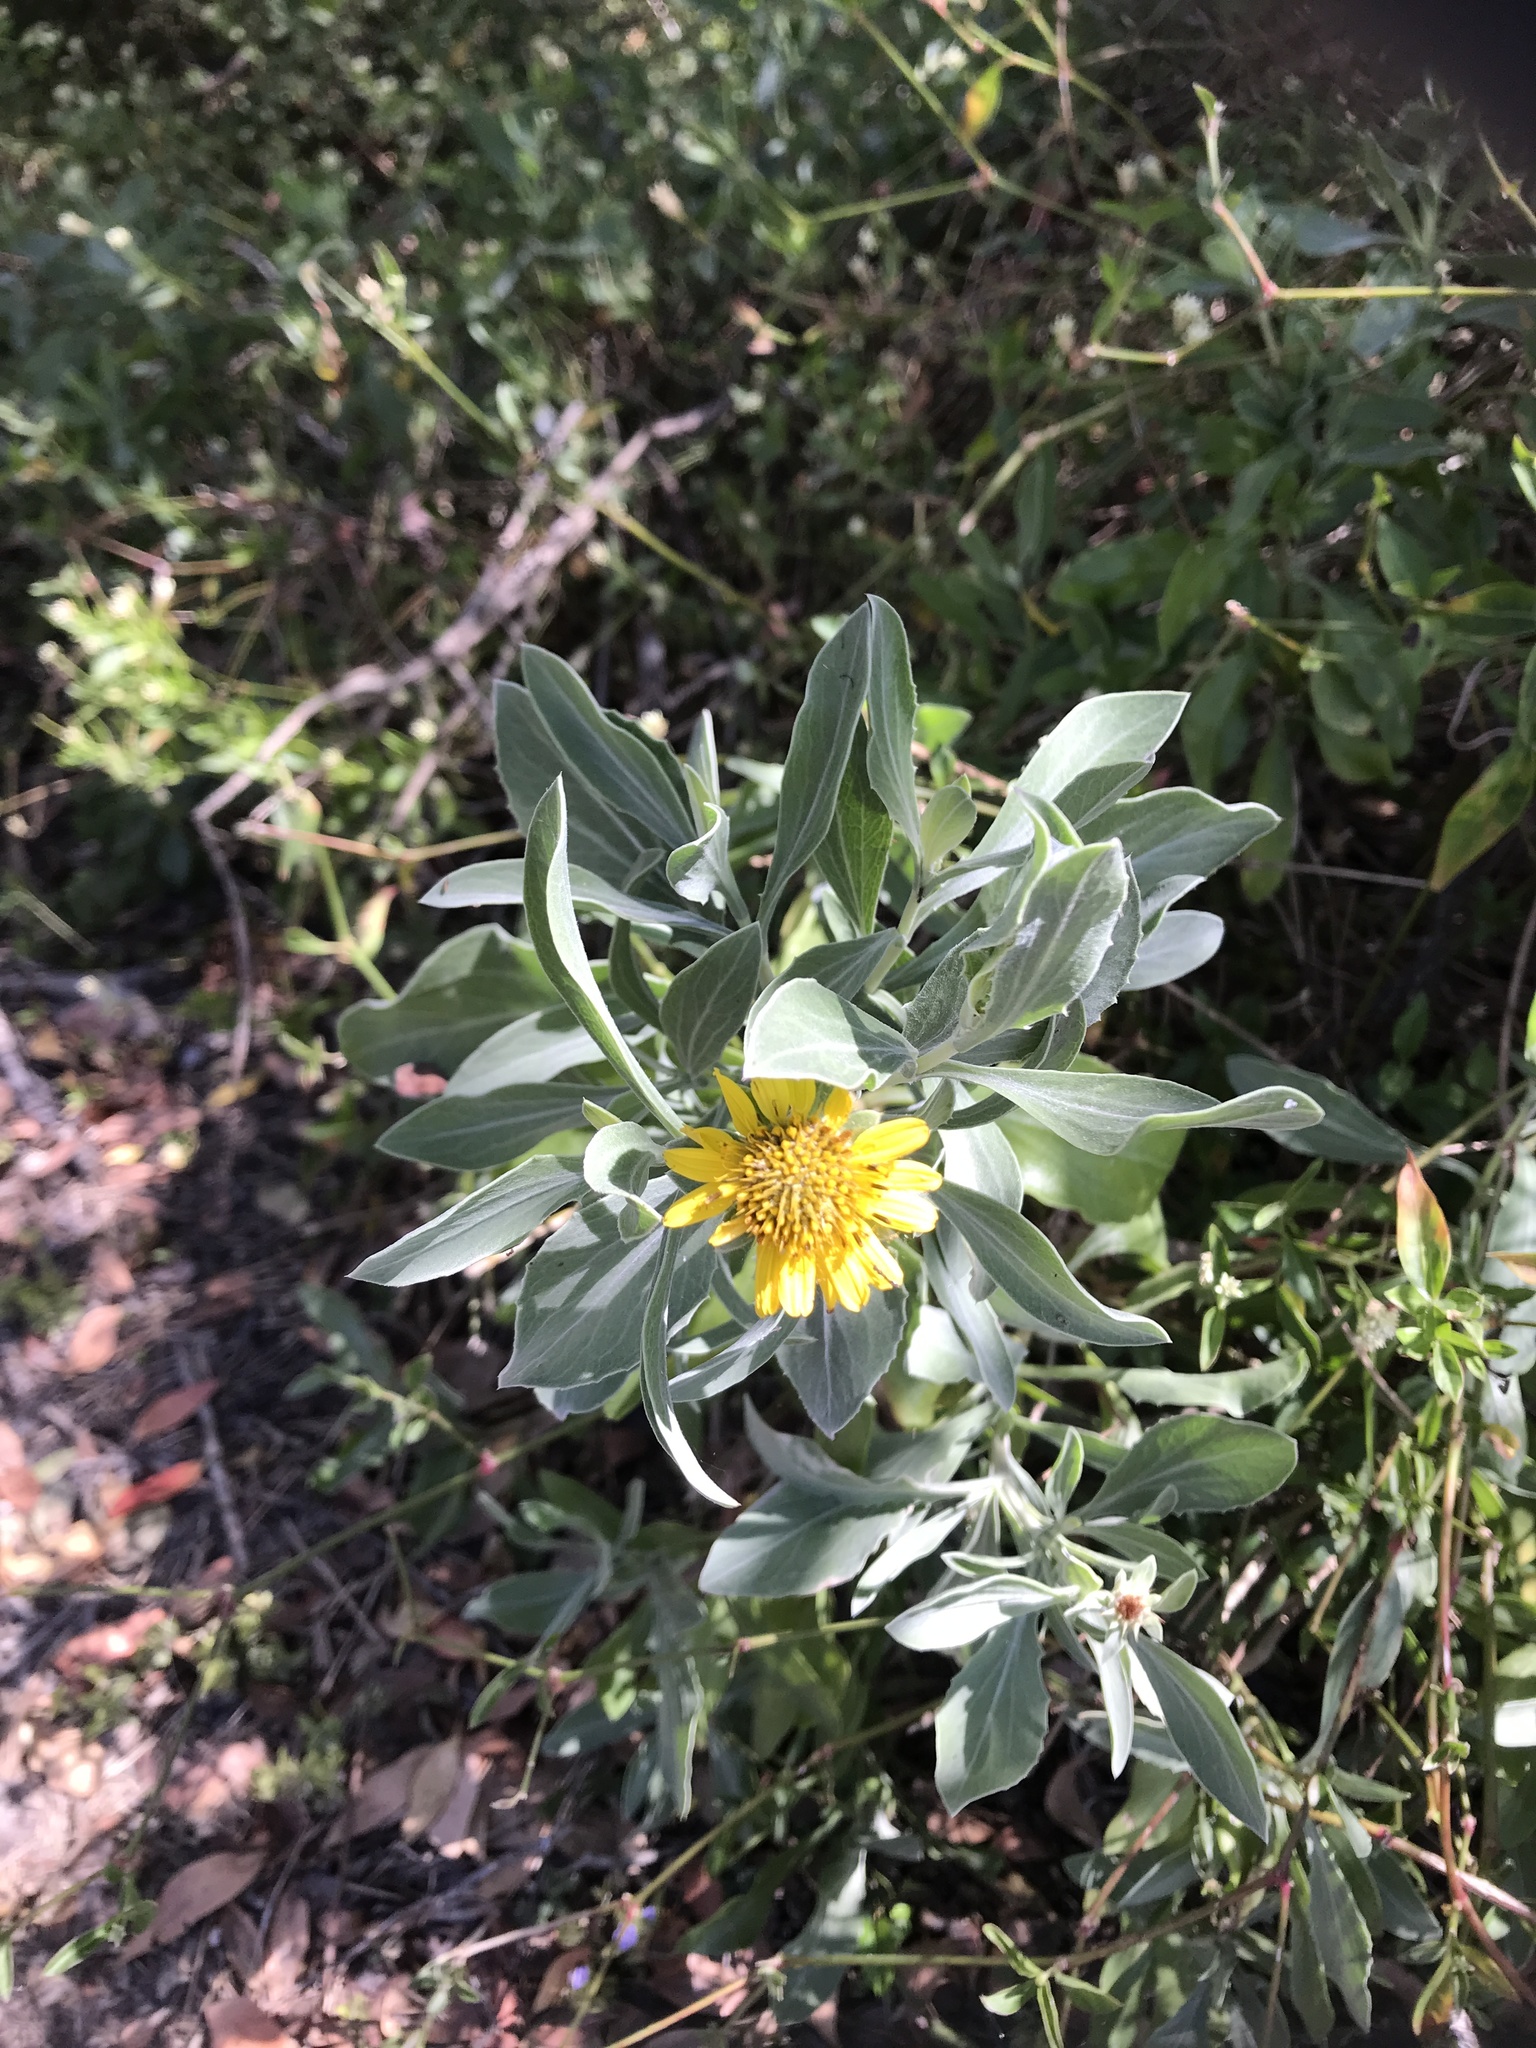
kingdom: Plantae
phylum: Tracheophyta
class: Magnoliopsida
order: Asterales
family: Asteraceae
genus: Borrichia
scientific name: Borrichia frutescens
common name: Sea oxeye
